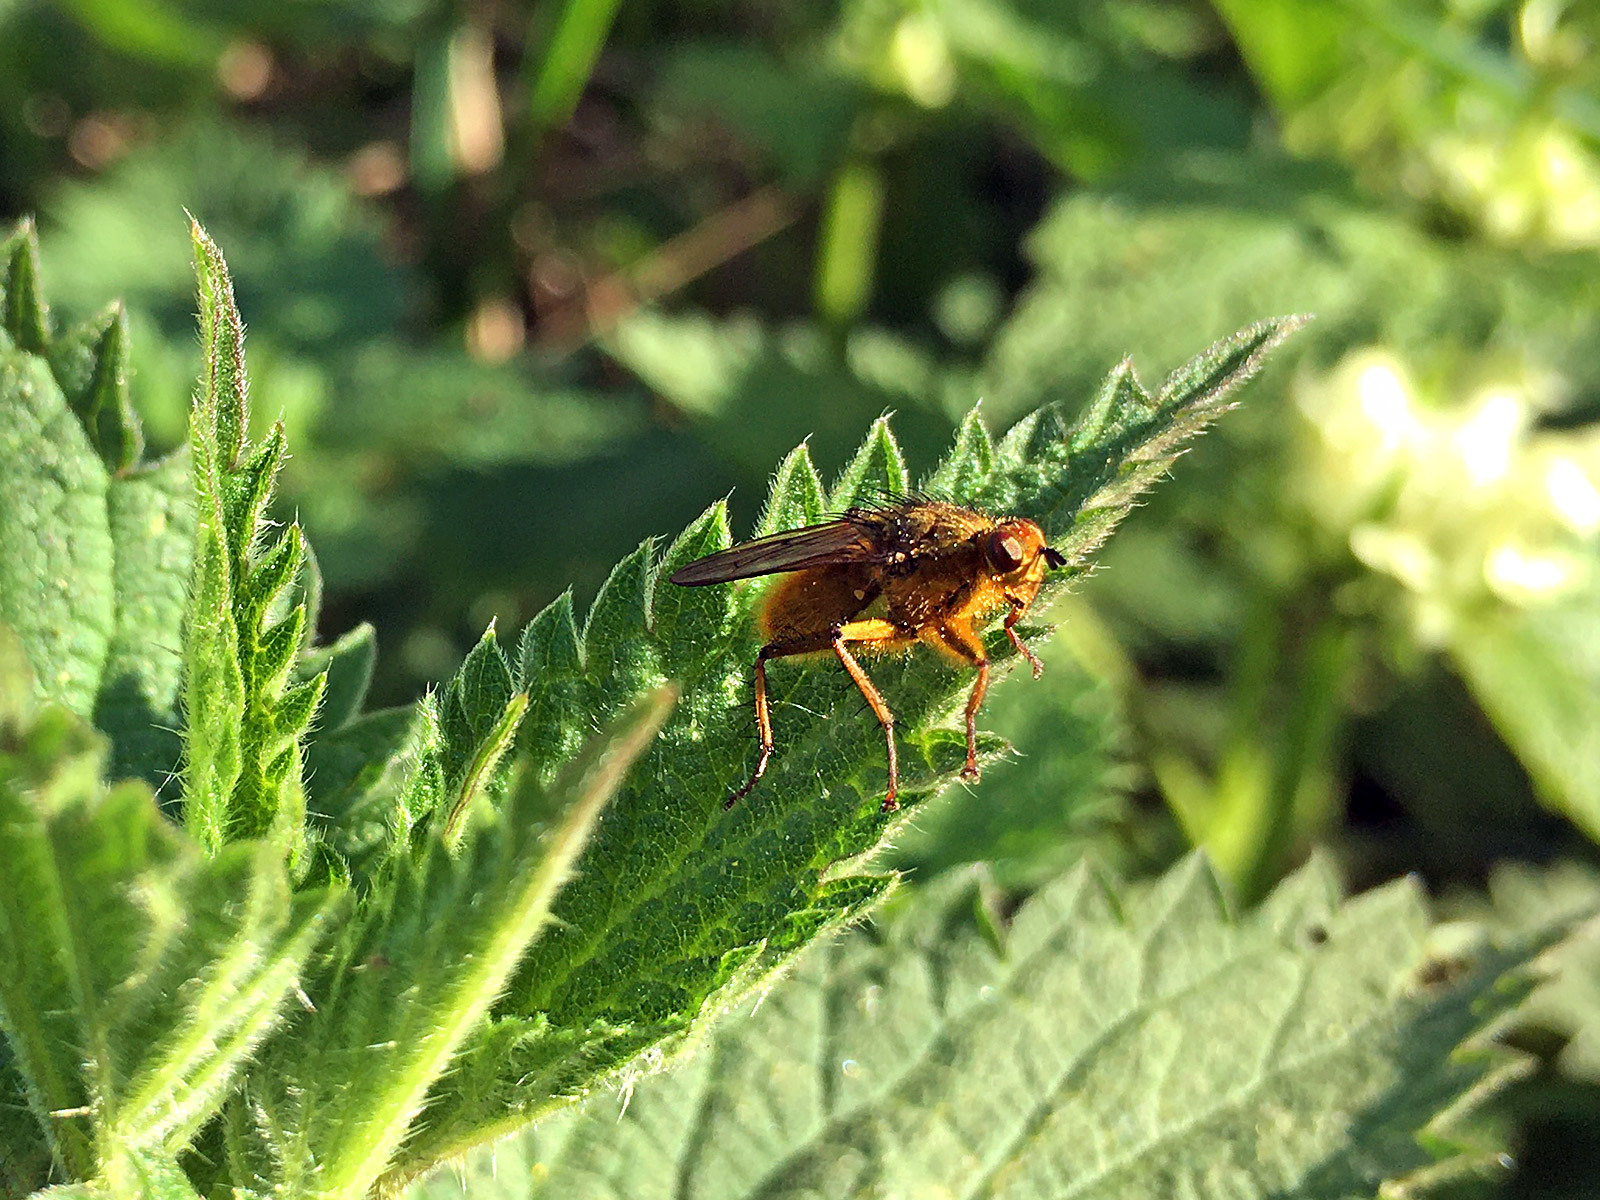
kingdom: Animalia
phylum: Arthropoda
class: Insecta
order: Diptera
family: Scathophagidae
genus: Scathophaga
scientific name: Scathophaga stercoraria
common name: Yellow dung fly
